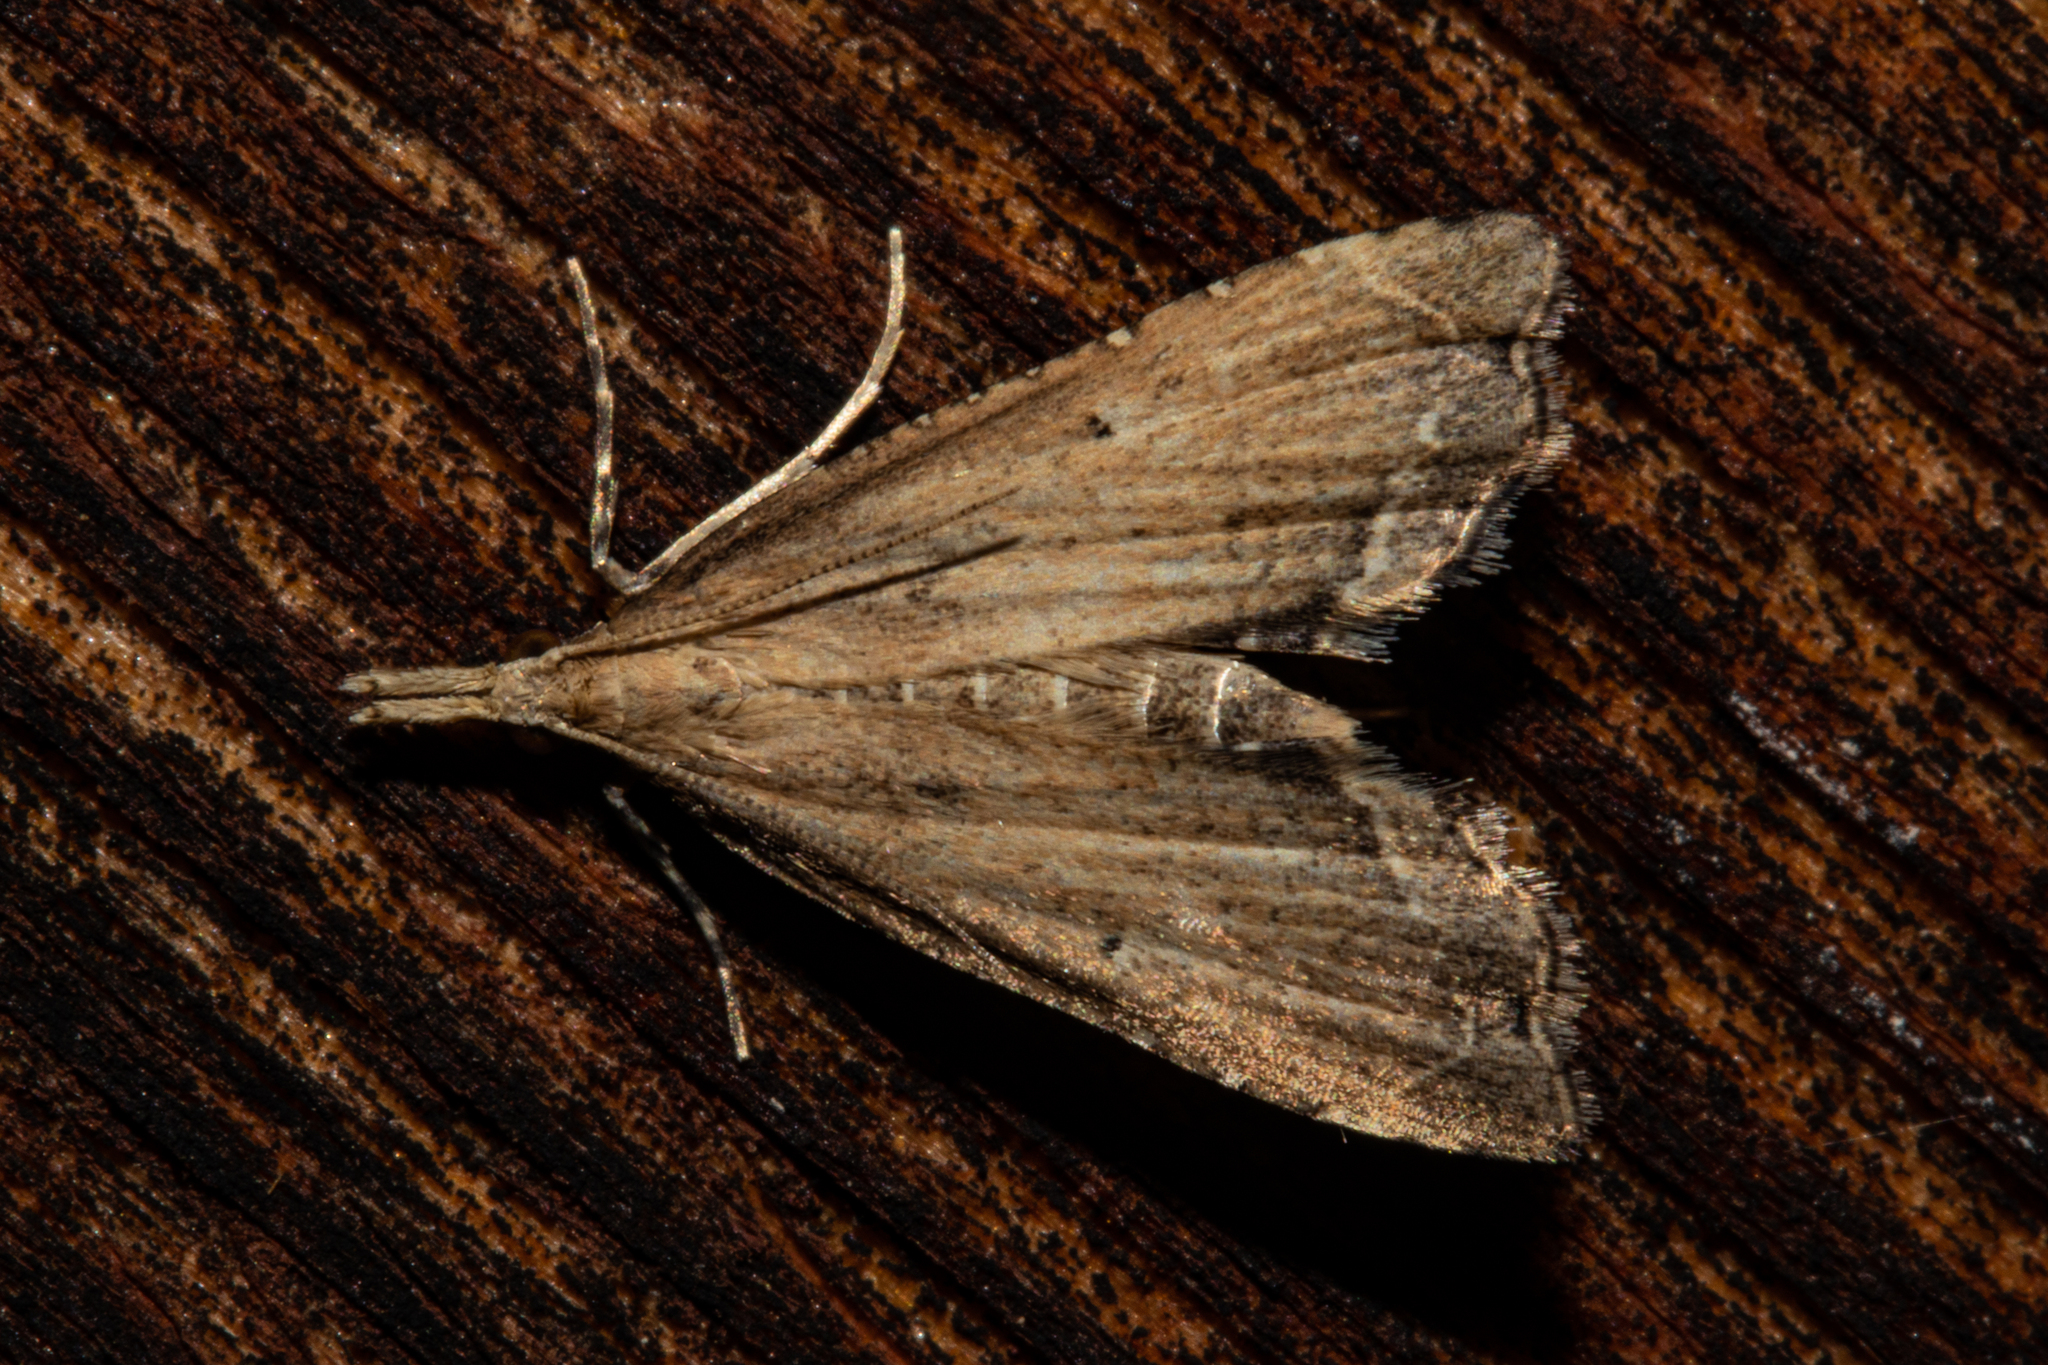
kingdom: Animalia
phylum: Arthropoda
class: Insecta
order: Lepidoptera
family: Crambidae
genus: Diplopseustis
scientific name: Diplopseustis perieresalis
